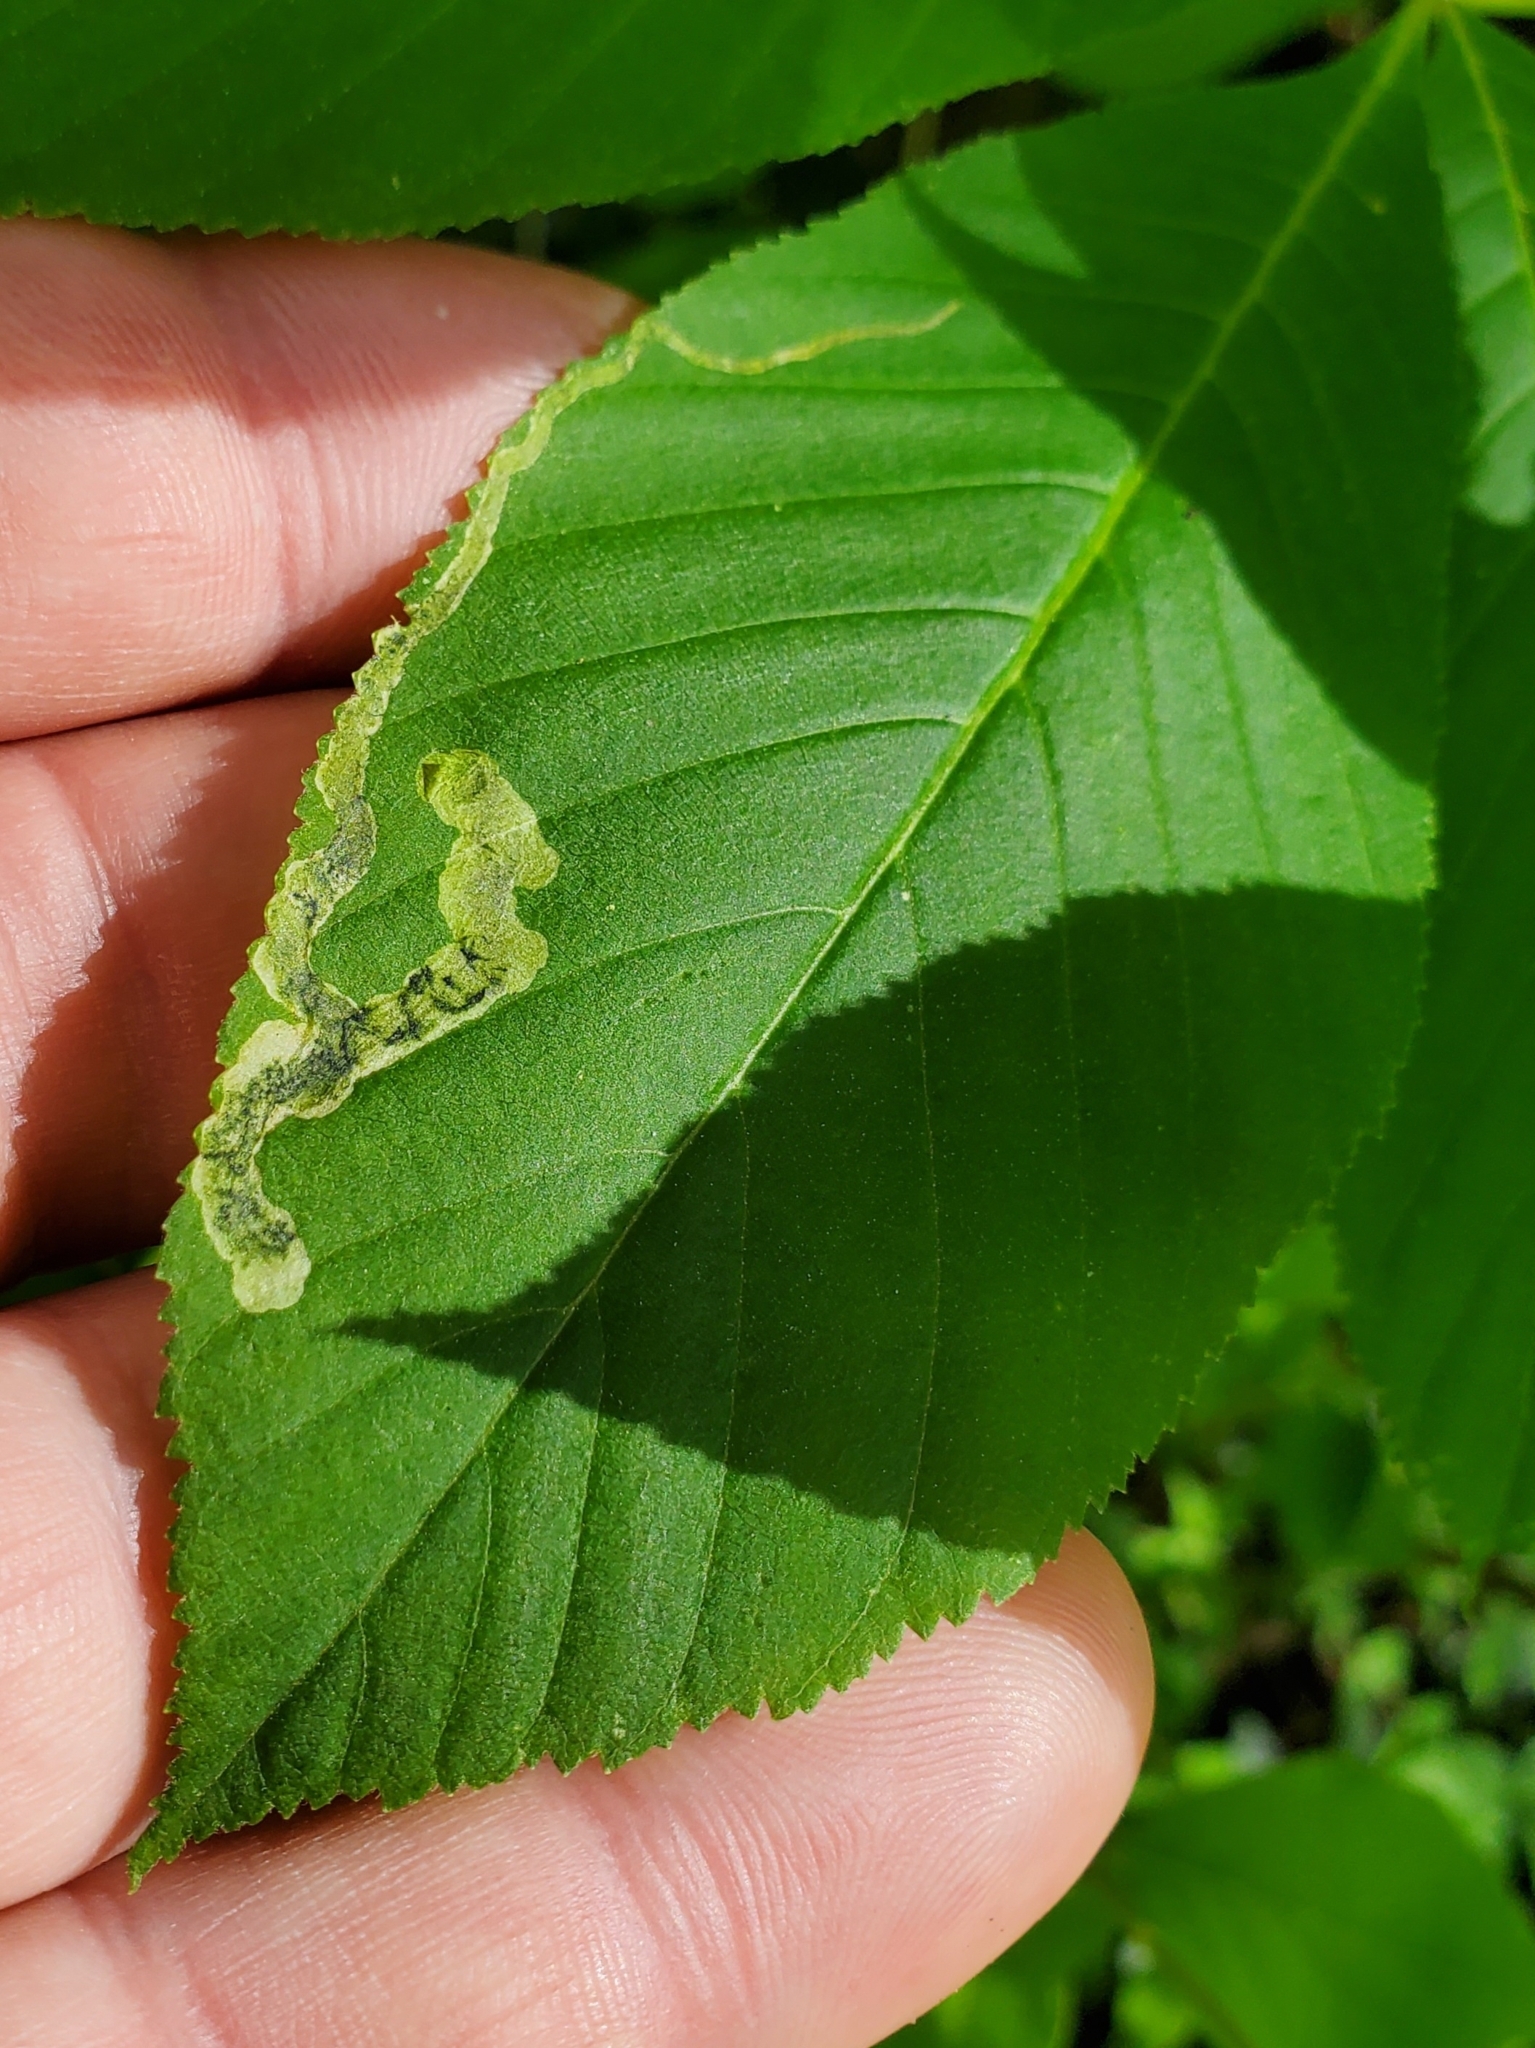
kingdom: Animalia
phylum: Arthropoda
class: Insecta
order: Diptera
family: Agromyzidae
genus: Phytomyza
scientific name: Phytomyza aesculi
